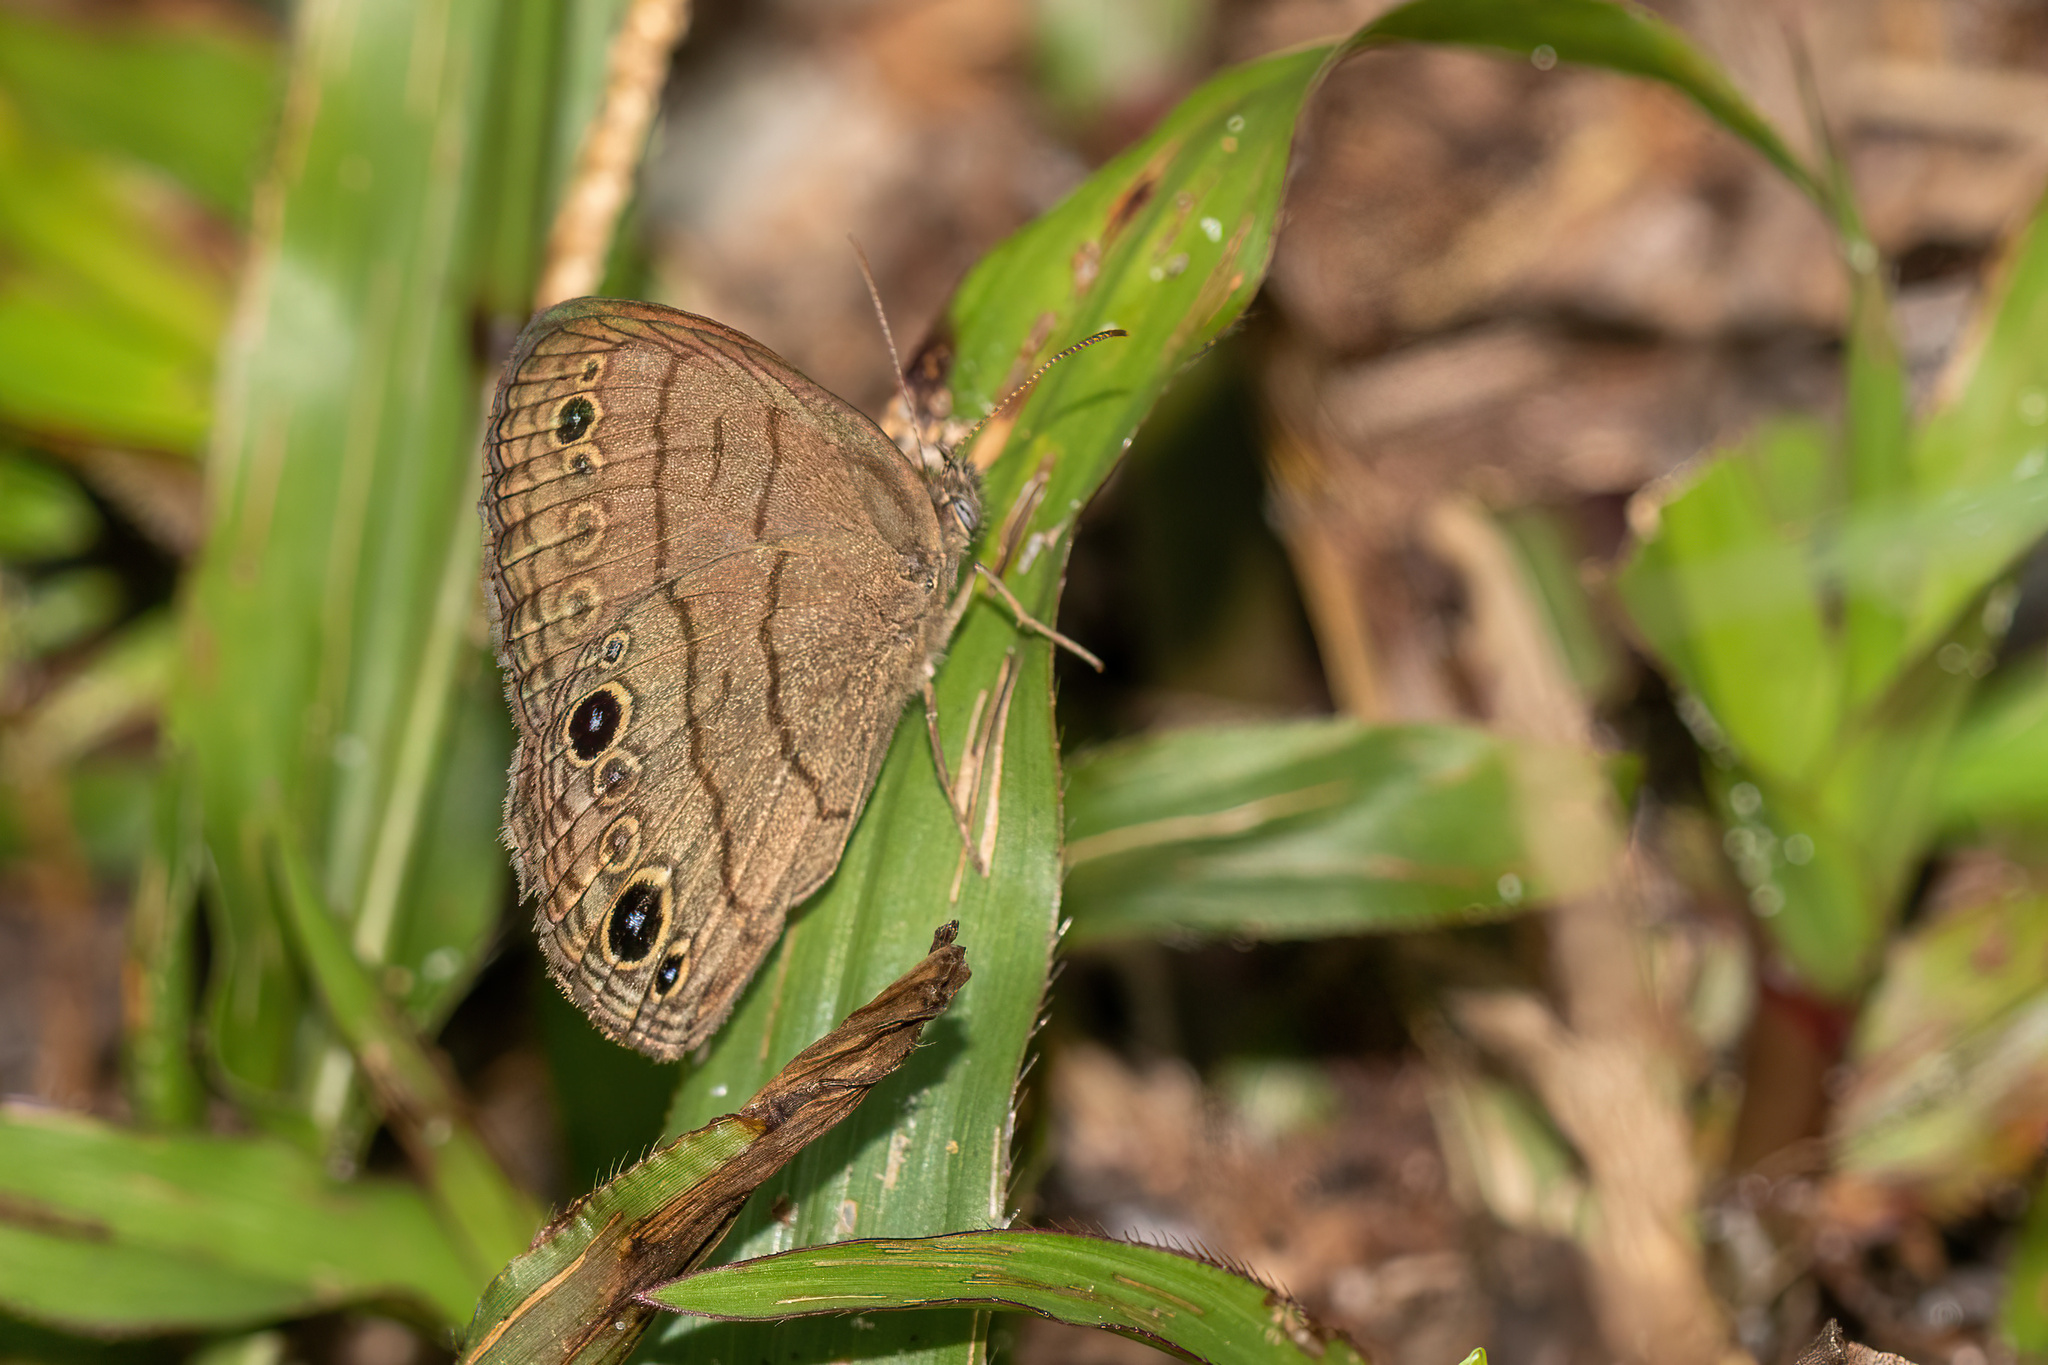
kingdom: Animalia
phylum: Arthropoda
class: Insecta
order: Lepidoptera
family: Nymphalidae
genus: Hermeuptychia
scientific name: Hermeuptychia intricata
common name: Intricate satyr
